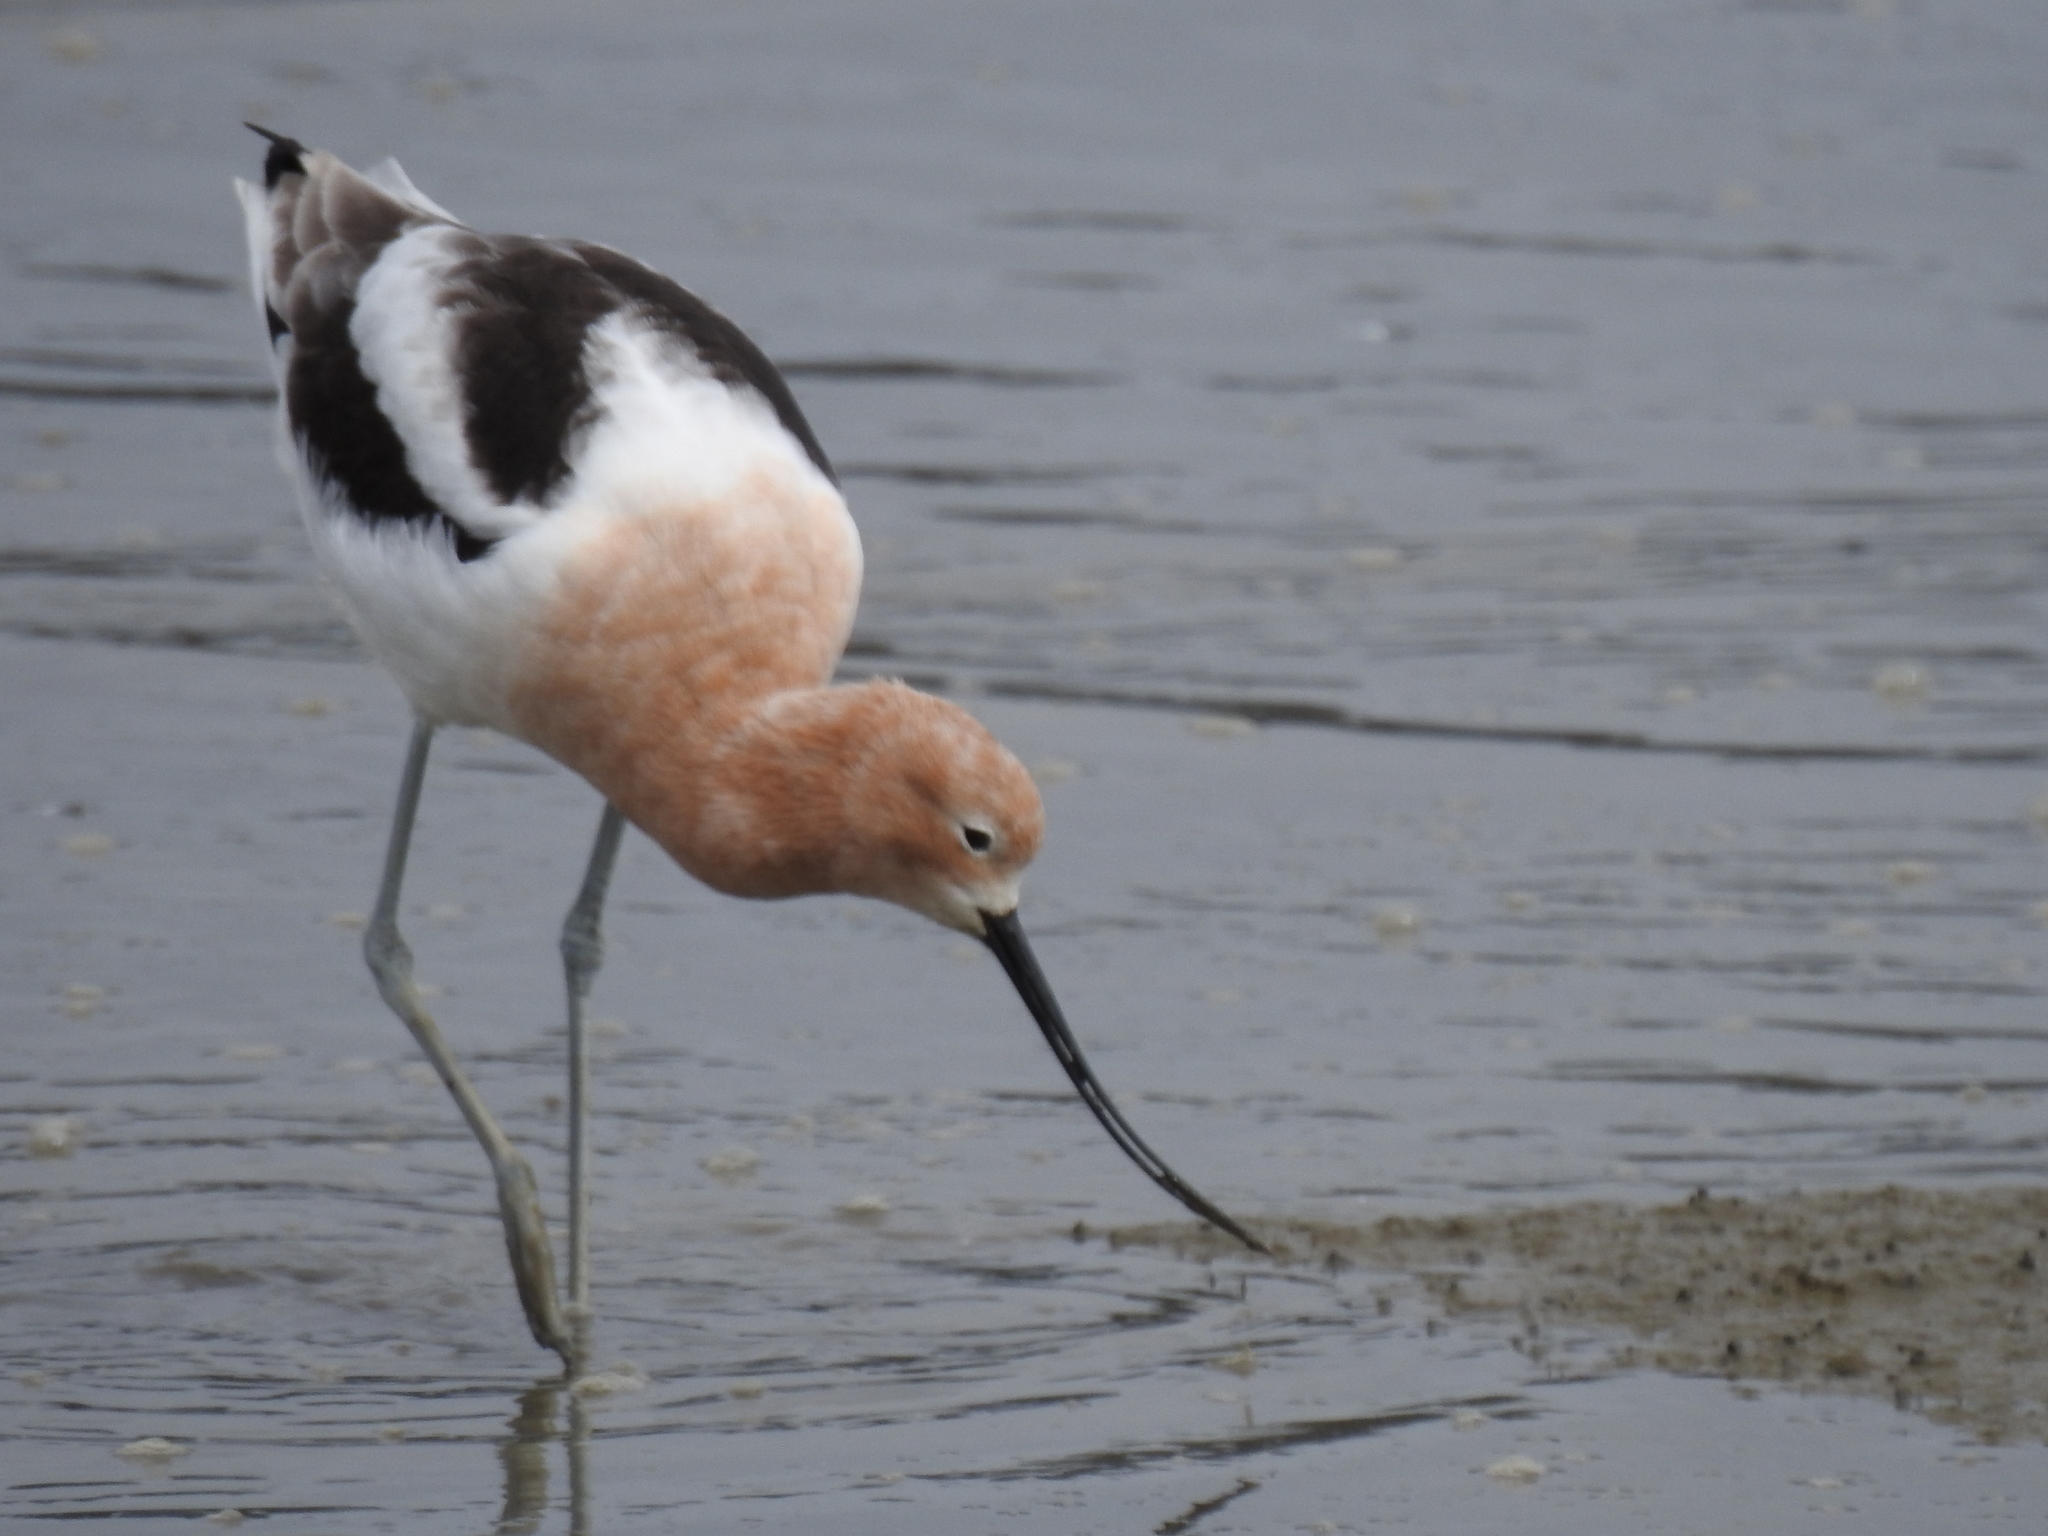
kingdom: Animalia
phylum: Chordata
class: Aves
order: Charadriiformes
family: Recurvirostridae
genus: Recurvirostra
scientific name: Recurvirostra americana
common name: American avocet
